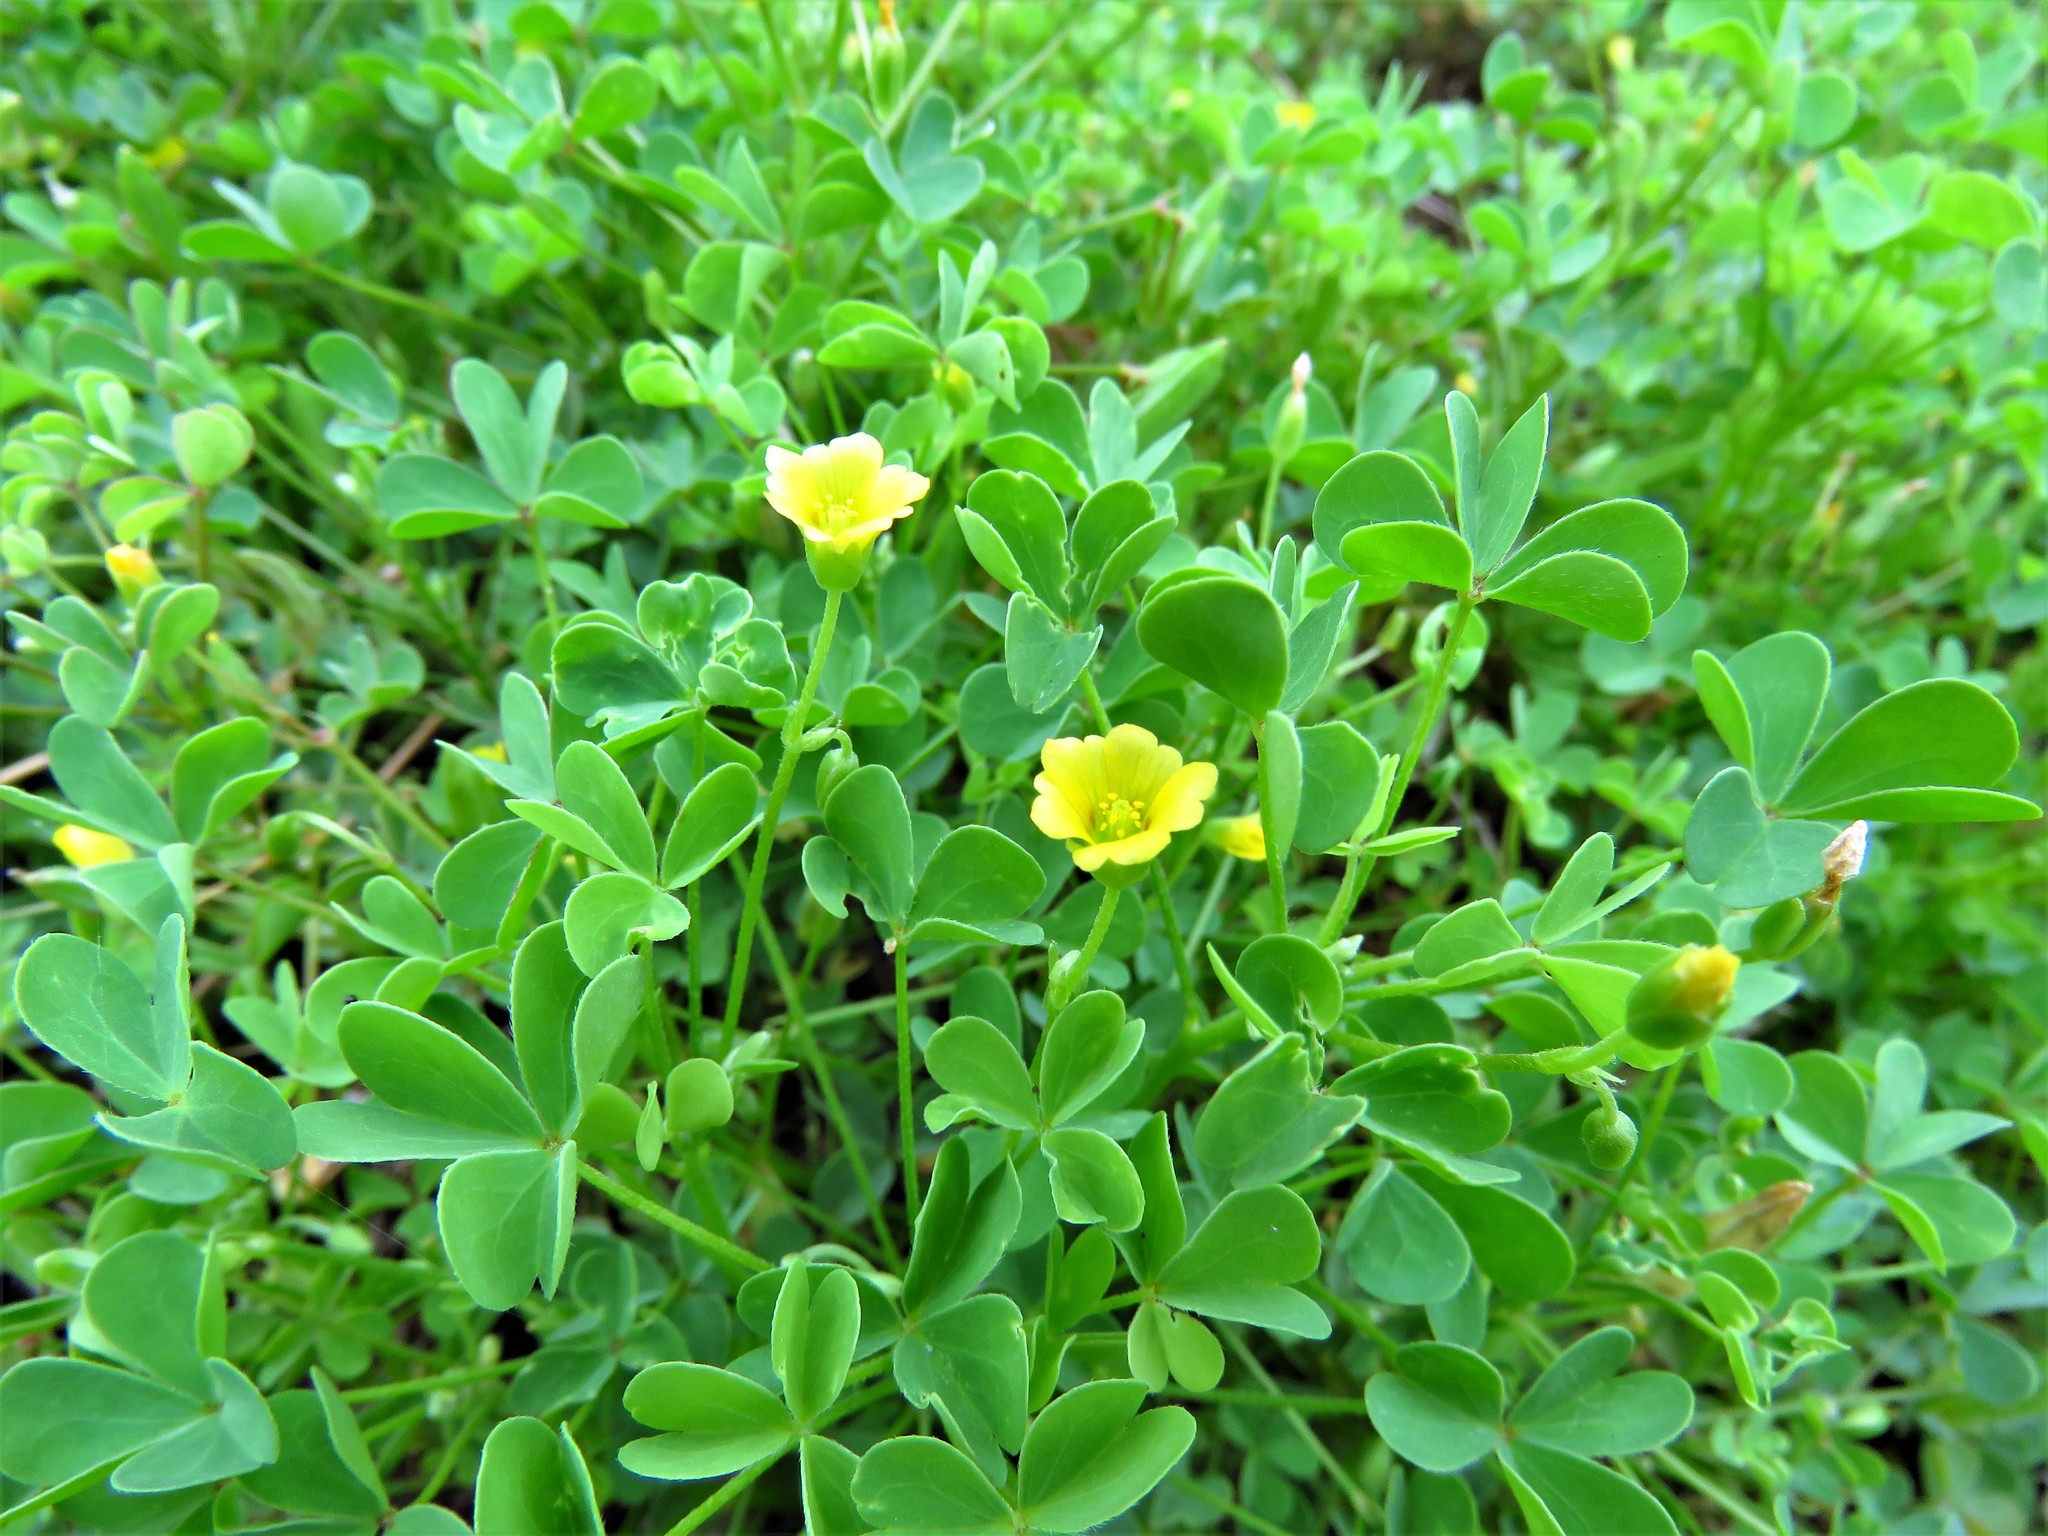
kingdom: Plantae
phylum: Tracheophyta
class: Magnoliopsida
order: Oxalidales
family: Oxalidaceae
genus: Oxalis
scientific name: Oxalis dillenii
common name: Sussex yellow-sorrel
